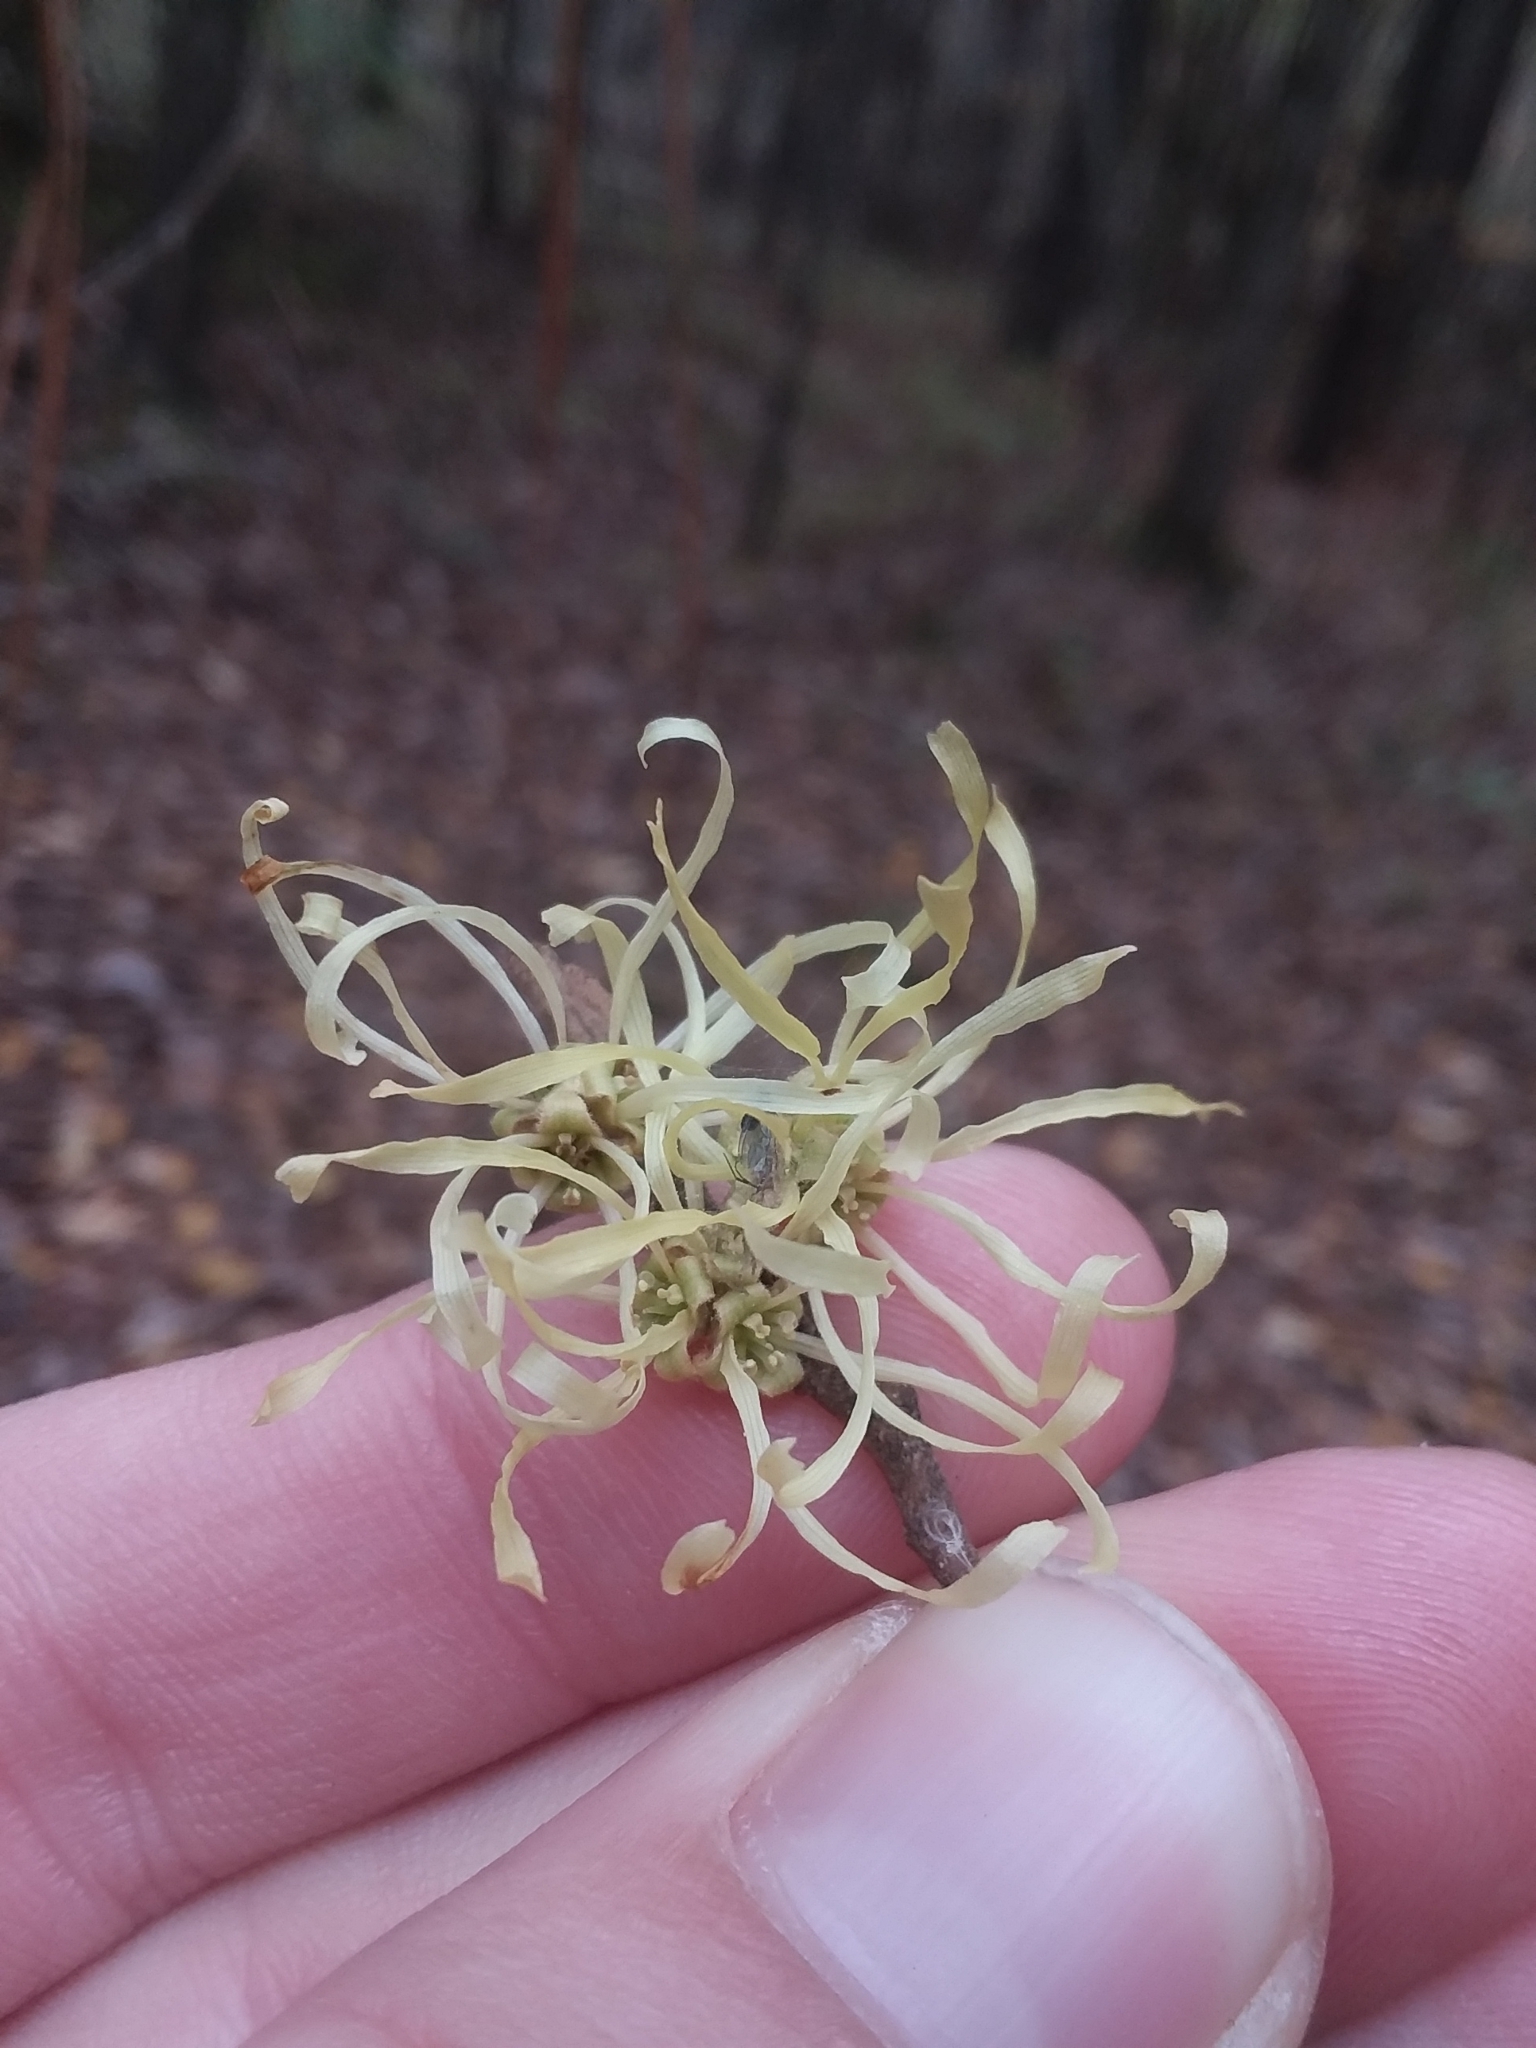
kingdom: Plantae
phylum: Tracheophyta
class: Magnoliopsida
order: Saxifragales
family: Hamamelidaceae
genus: Hamamelis
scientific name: Hamamelis virginiana
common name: Witch-hazel
